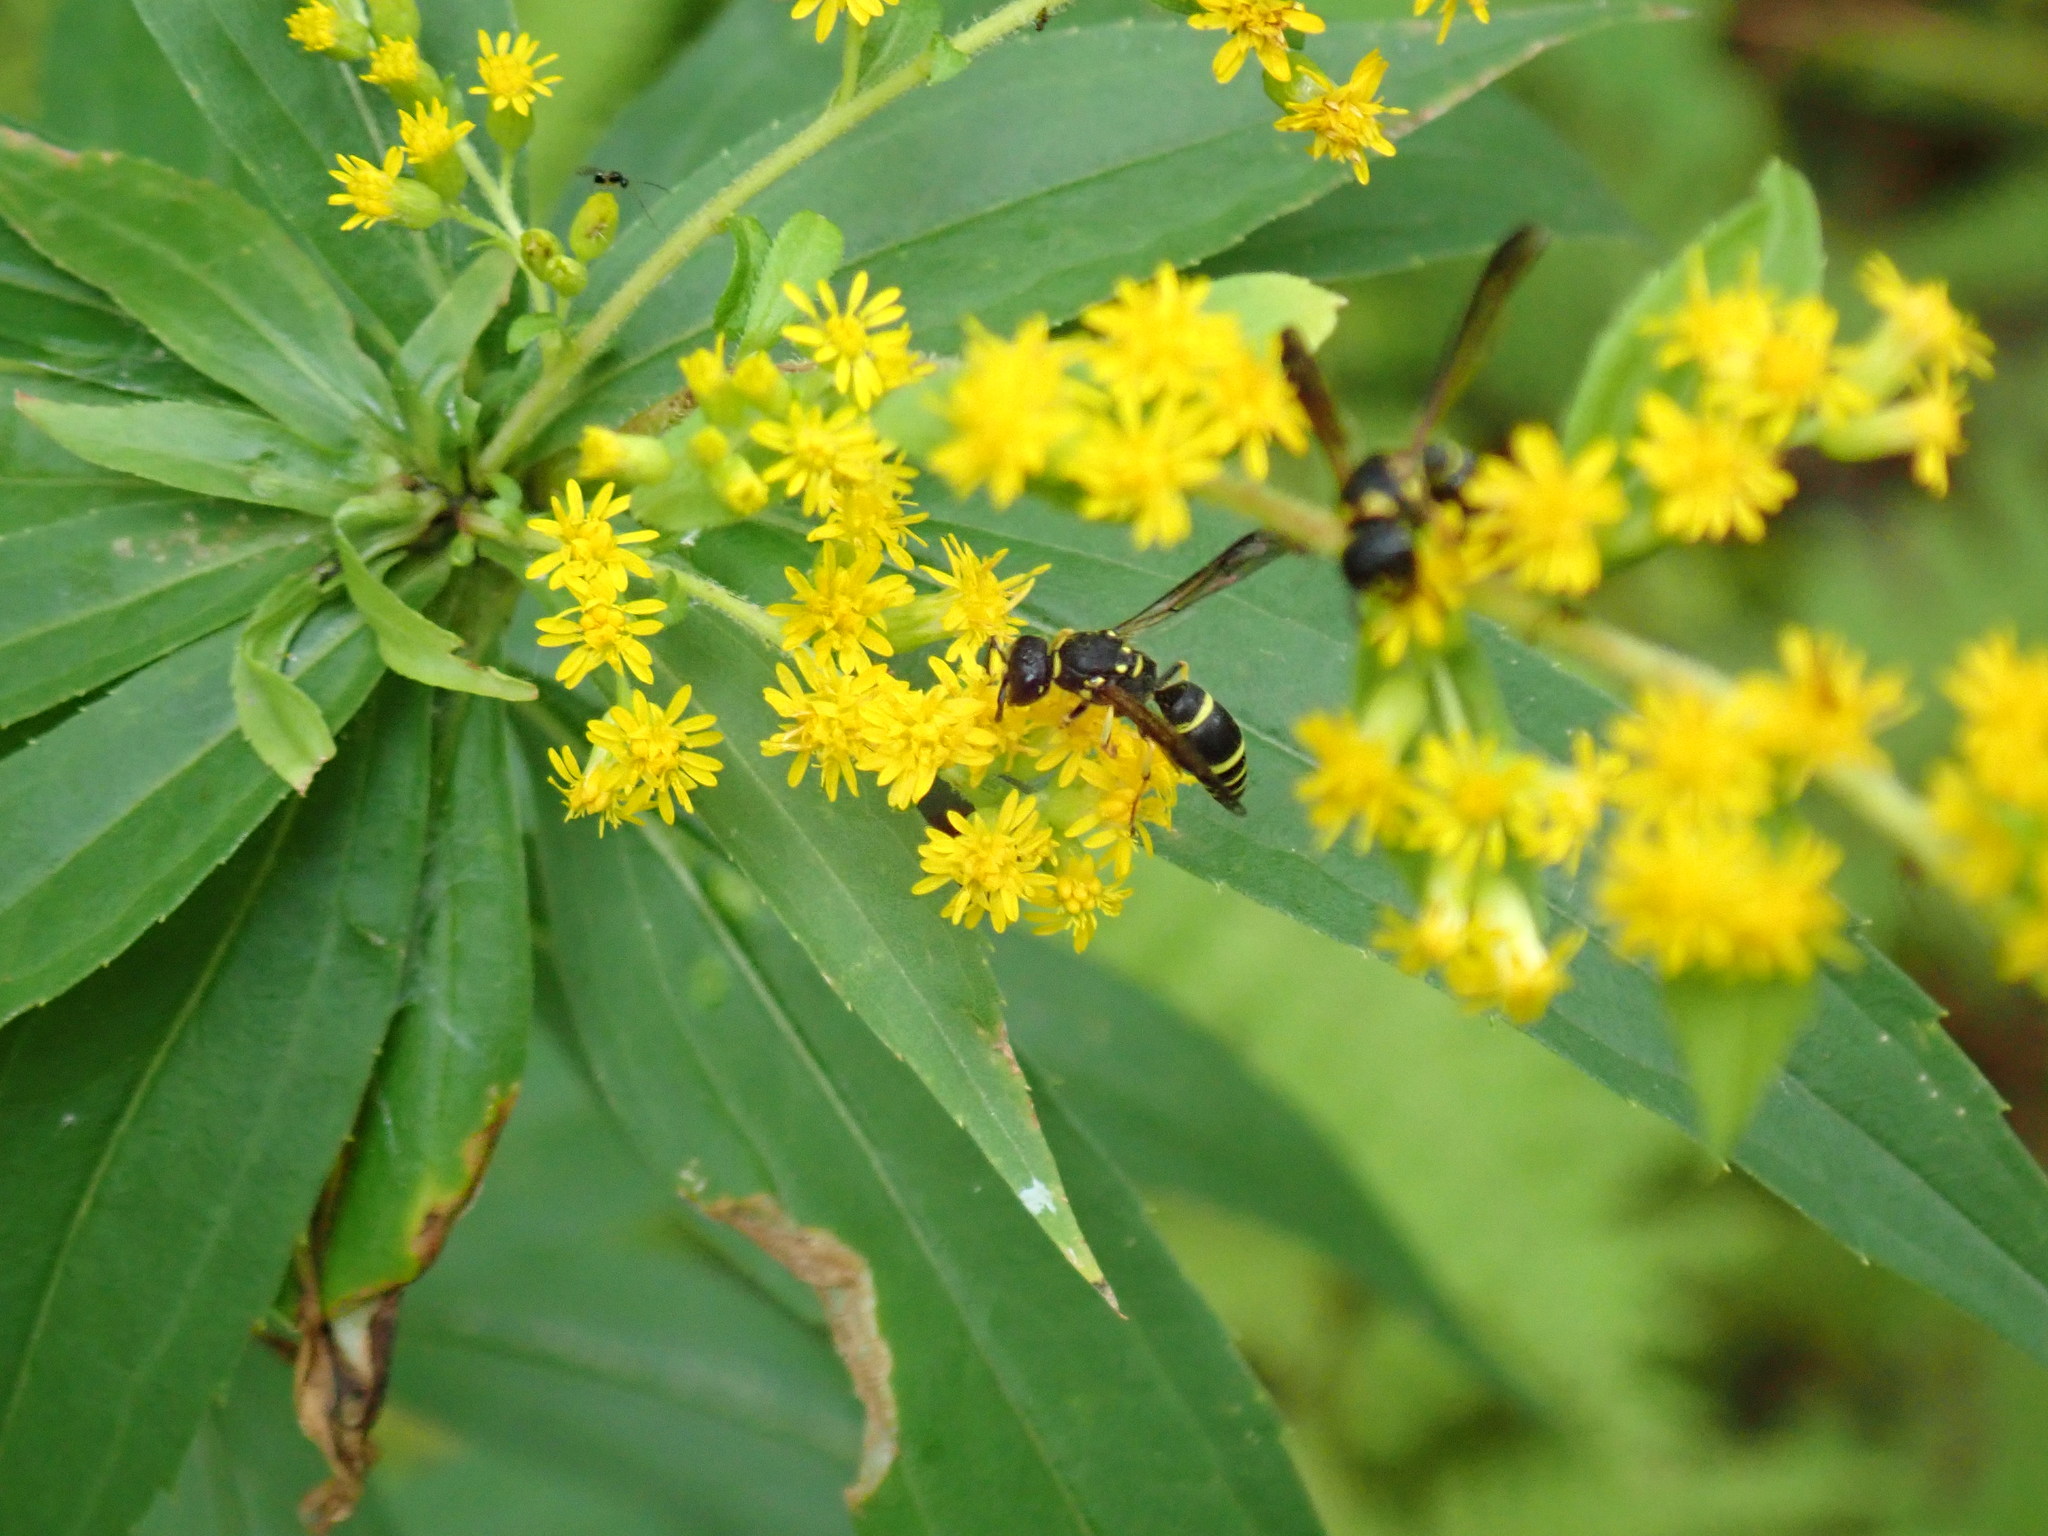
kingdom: Animalia
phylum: Arthropoda
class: Insecta
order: Hymenoptera
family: Vespidae
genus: Ancistrocerus
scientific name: Ancistrocerus adiabatus
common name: Bramble mason wasp
